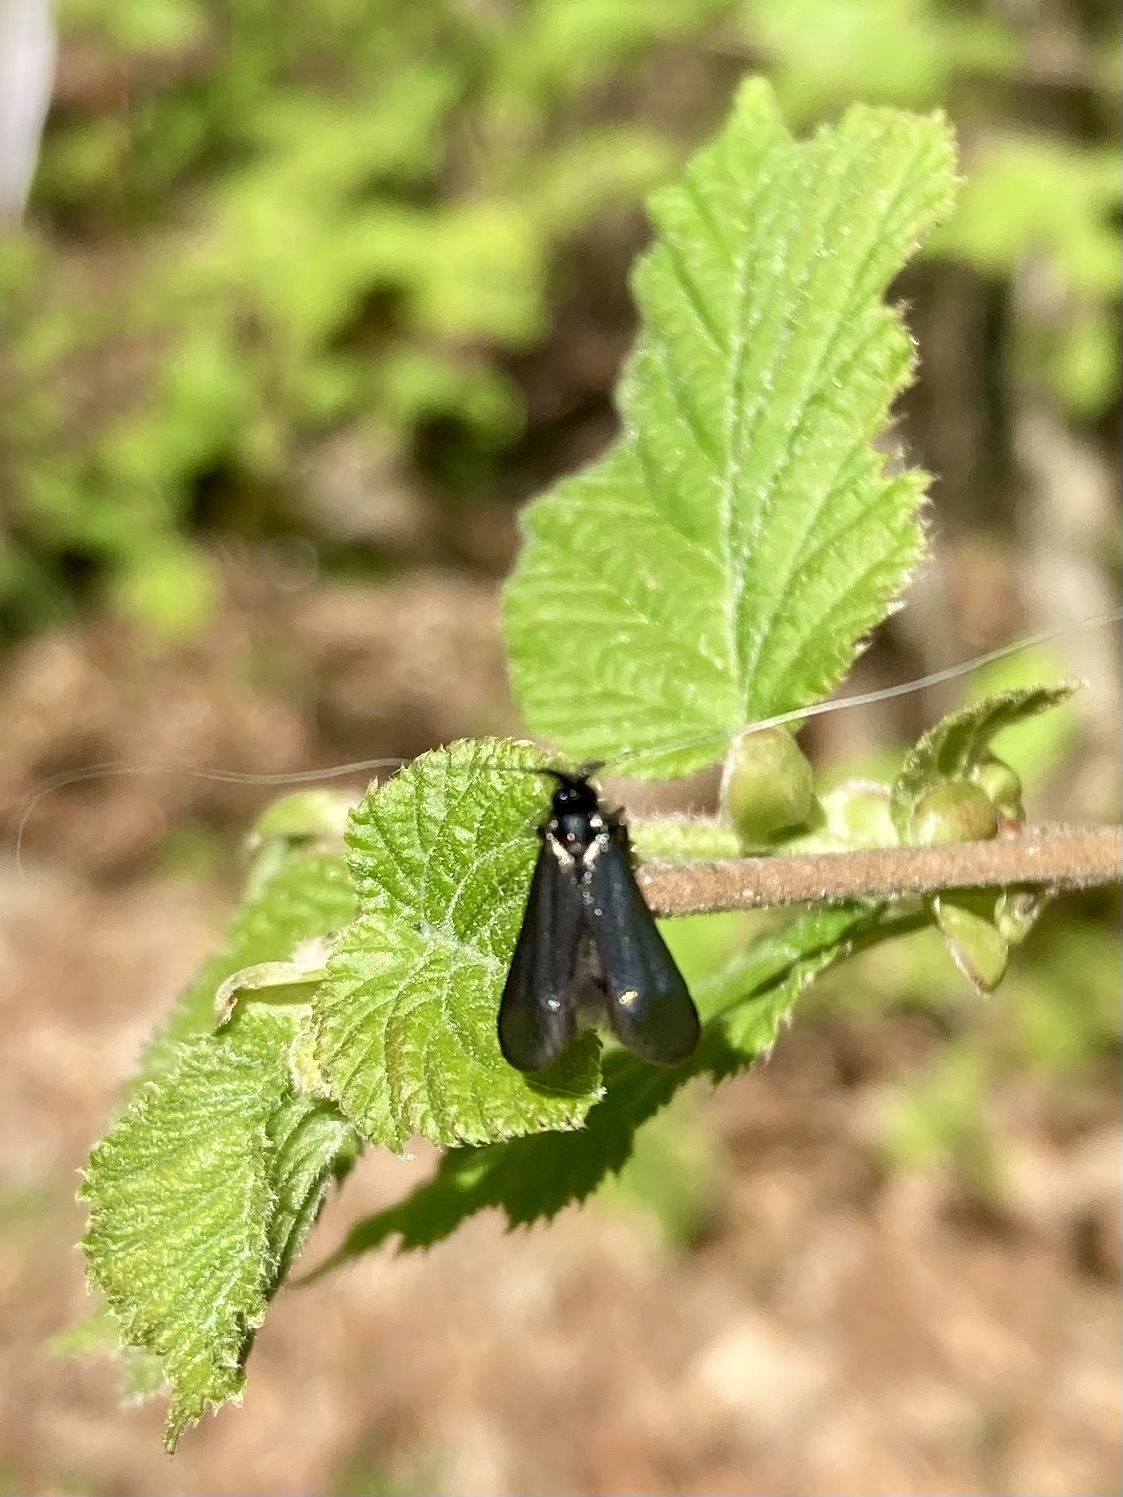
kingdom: Animalia
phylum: Arthropoda
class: Insecta
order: Lepidoptera
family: Adelidae
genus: Adela
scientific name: Adela viridella
